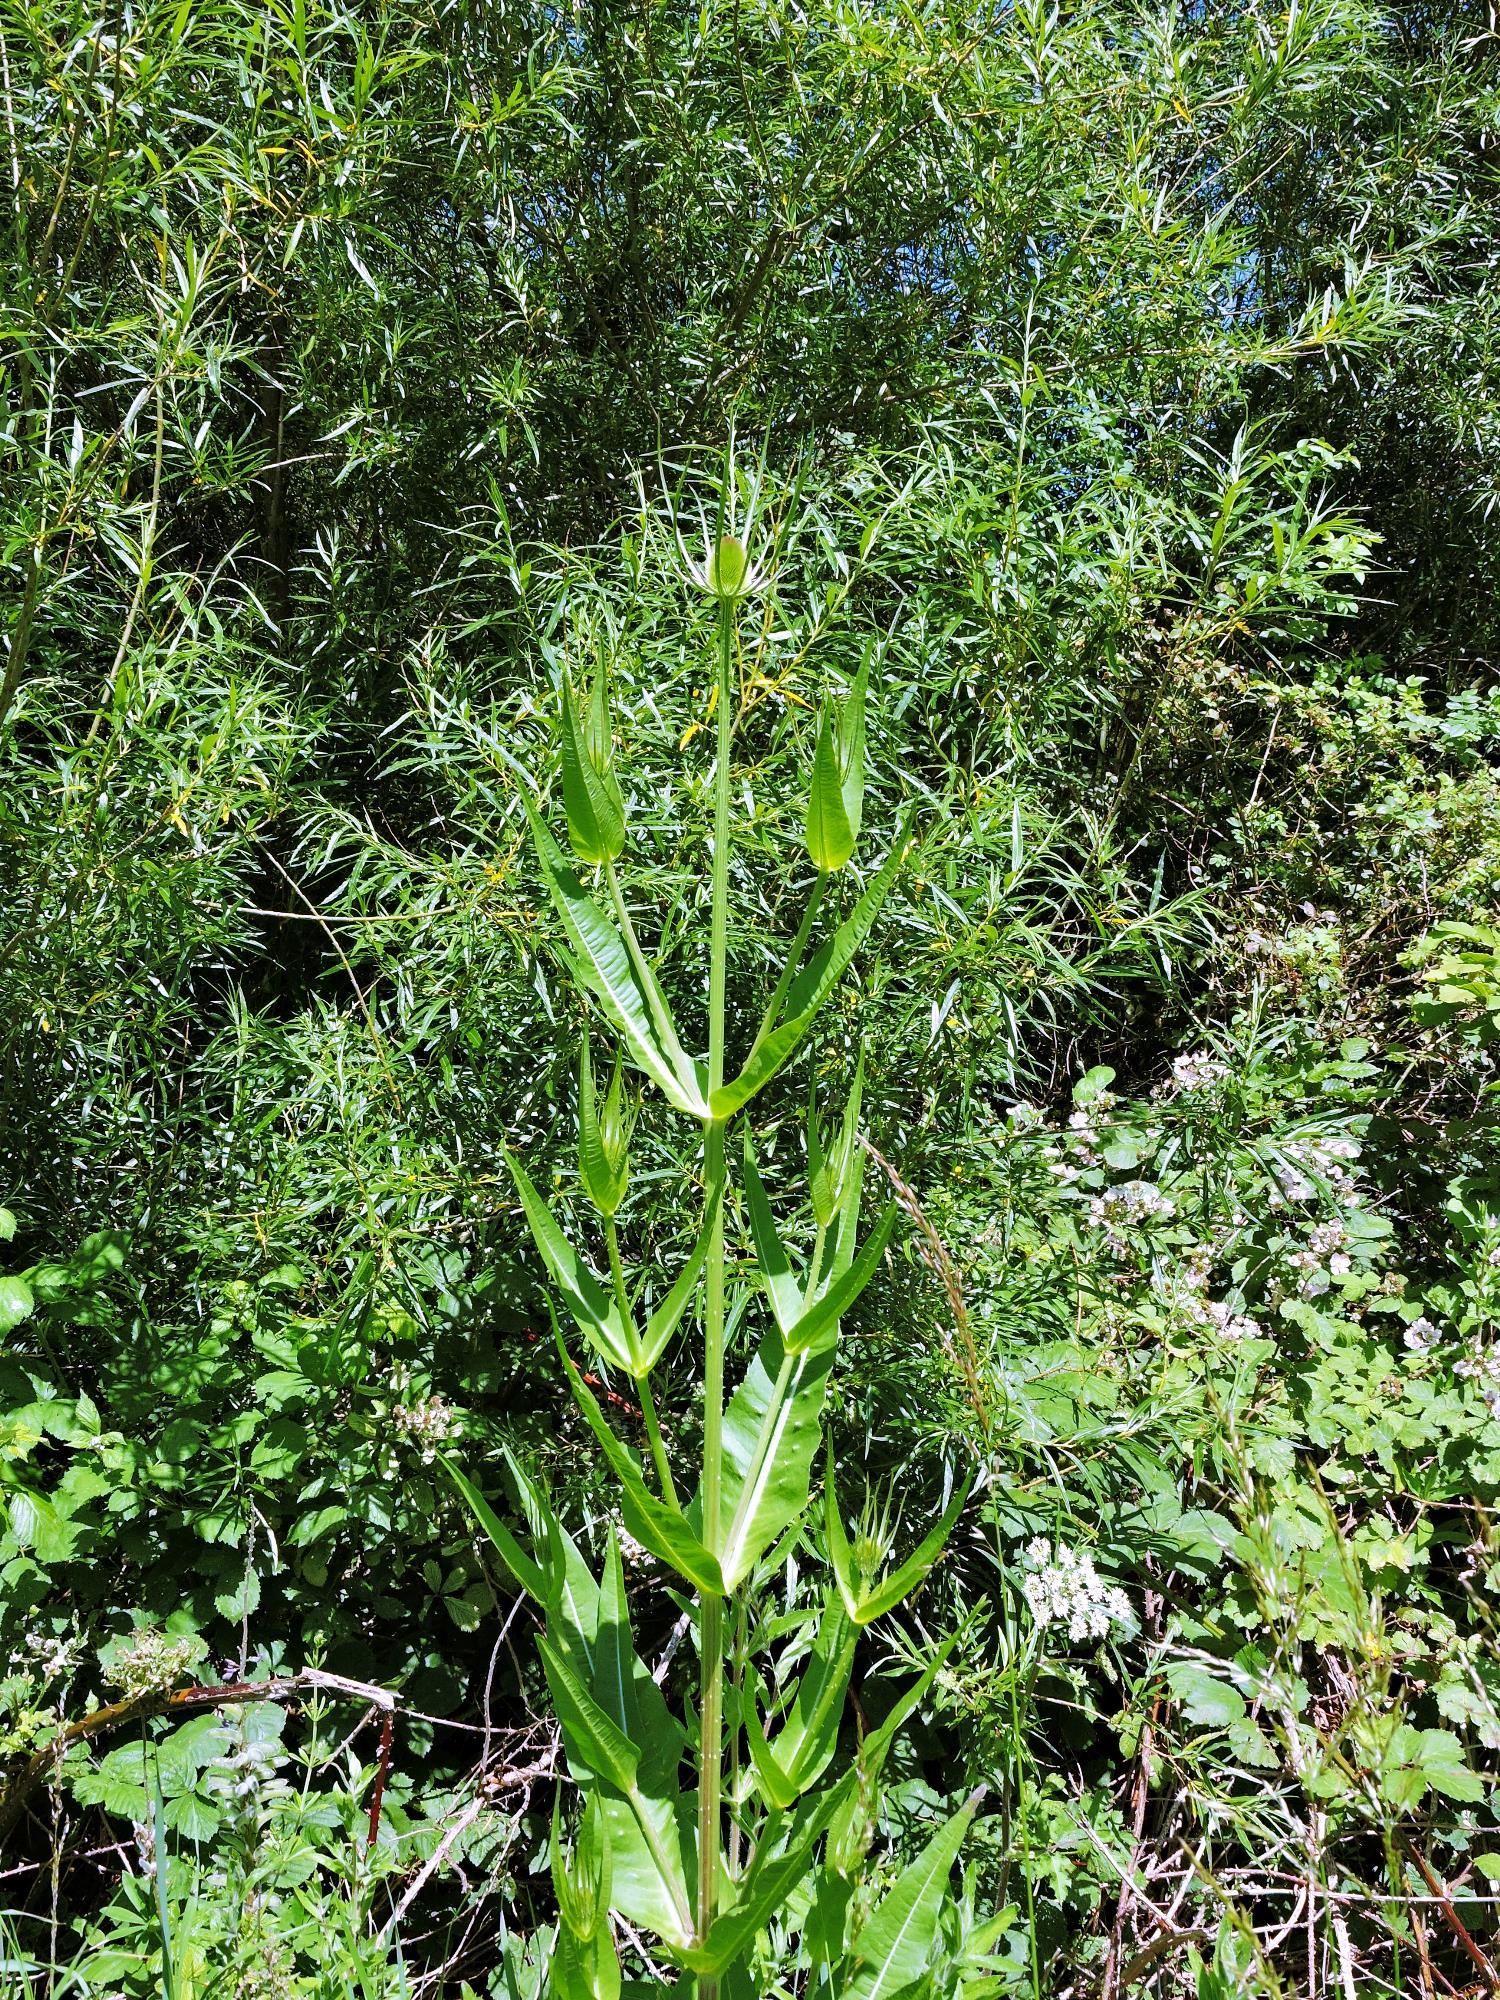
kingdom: Plantae
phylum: Tracheophyta
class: Magnoliopsida
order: Dipsacales
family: Caprifoliaceae
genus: Dipsacus
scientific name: Dipsacus fullonum
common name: Teasel
